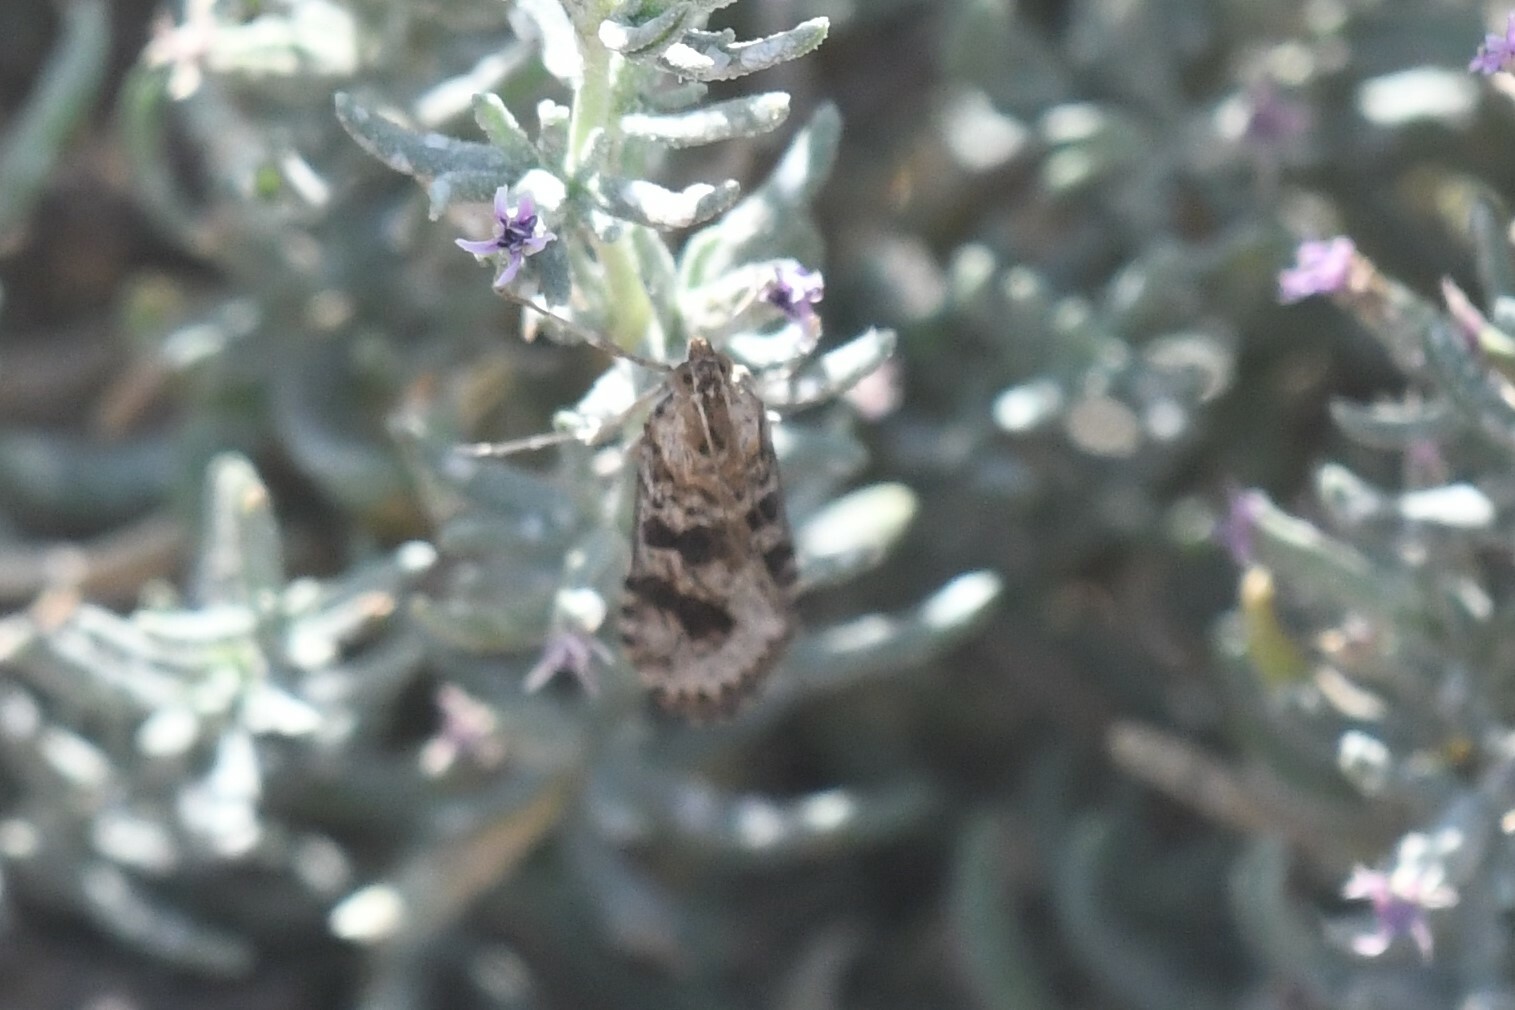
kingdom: Animalia
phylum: Arthropoda
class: Insecta
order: Lepidoptera
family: Crambidae
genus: Nomophila
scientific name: Nomophila distinctalis
